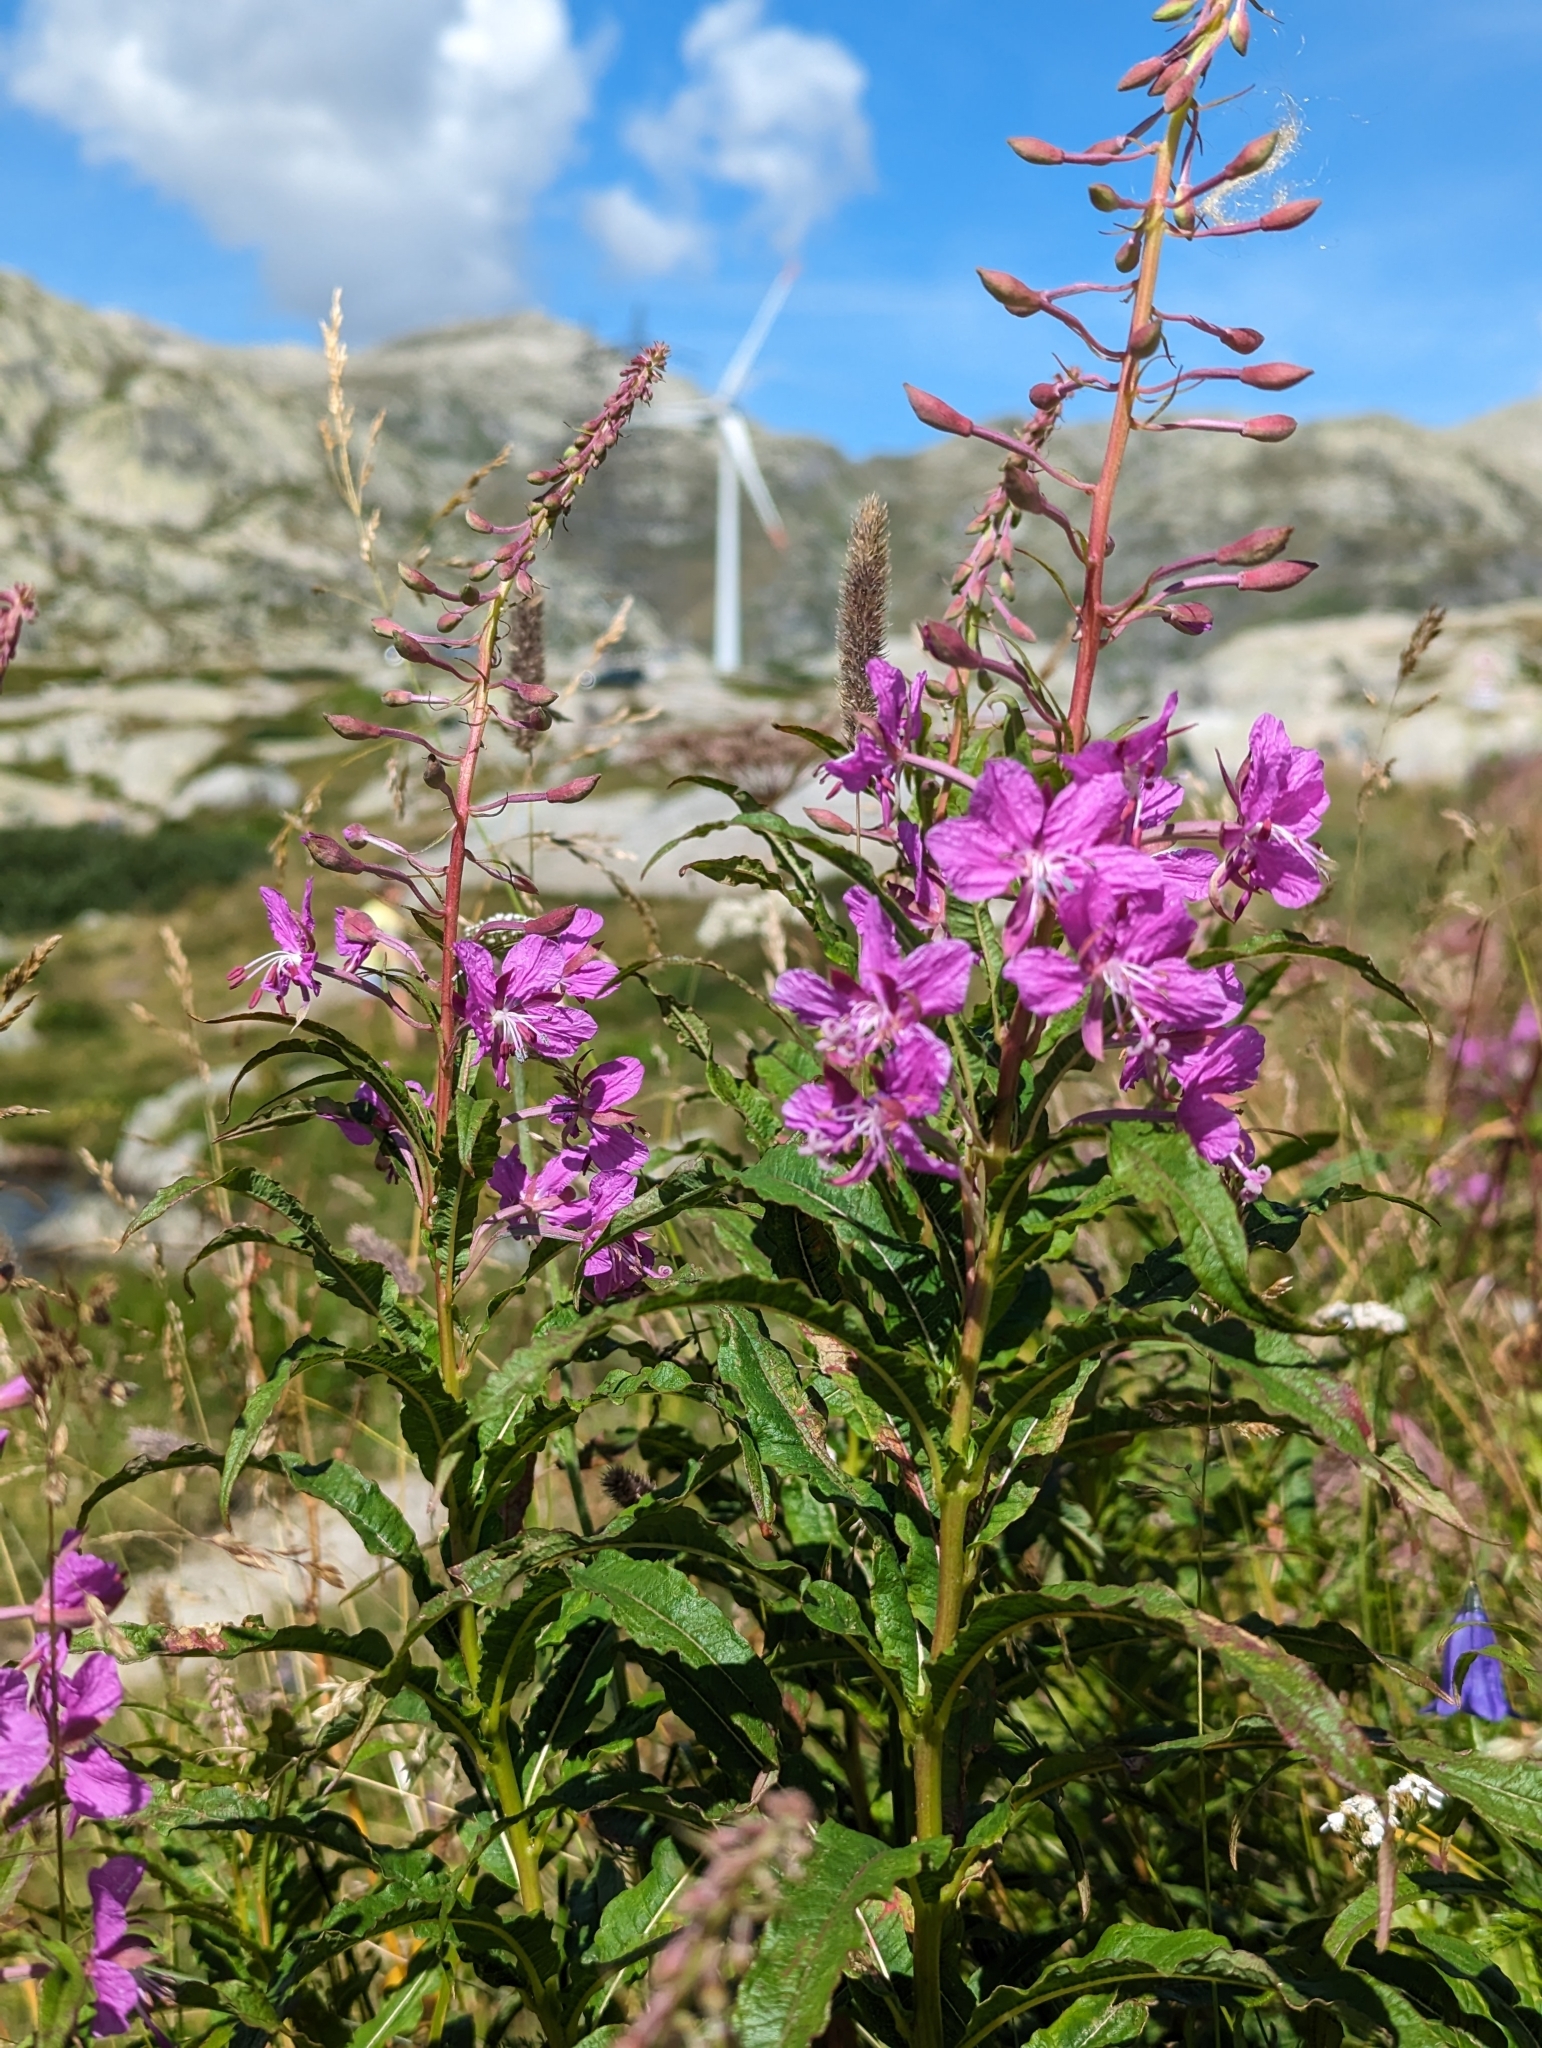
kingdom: Plantae
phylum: Tracheophyta
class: Magnoliopsida
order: Myrtales
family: Onagraceae
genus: Chamaenerion
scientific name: Chamaenerion angustifolium
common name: Fireweed
